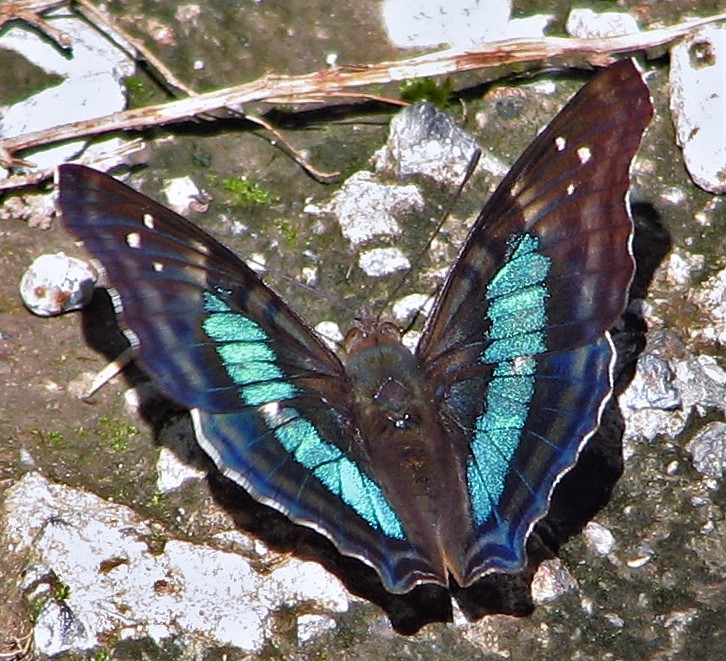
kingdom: Animalia
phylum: Arthropoda
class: Insecta
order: Lepidoptera
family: Nymphalidae
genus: Doxocopa
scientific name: Doxocopa laurentia
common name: Turquoise emperor
